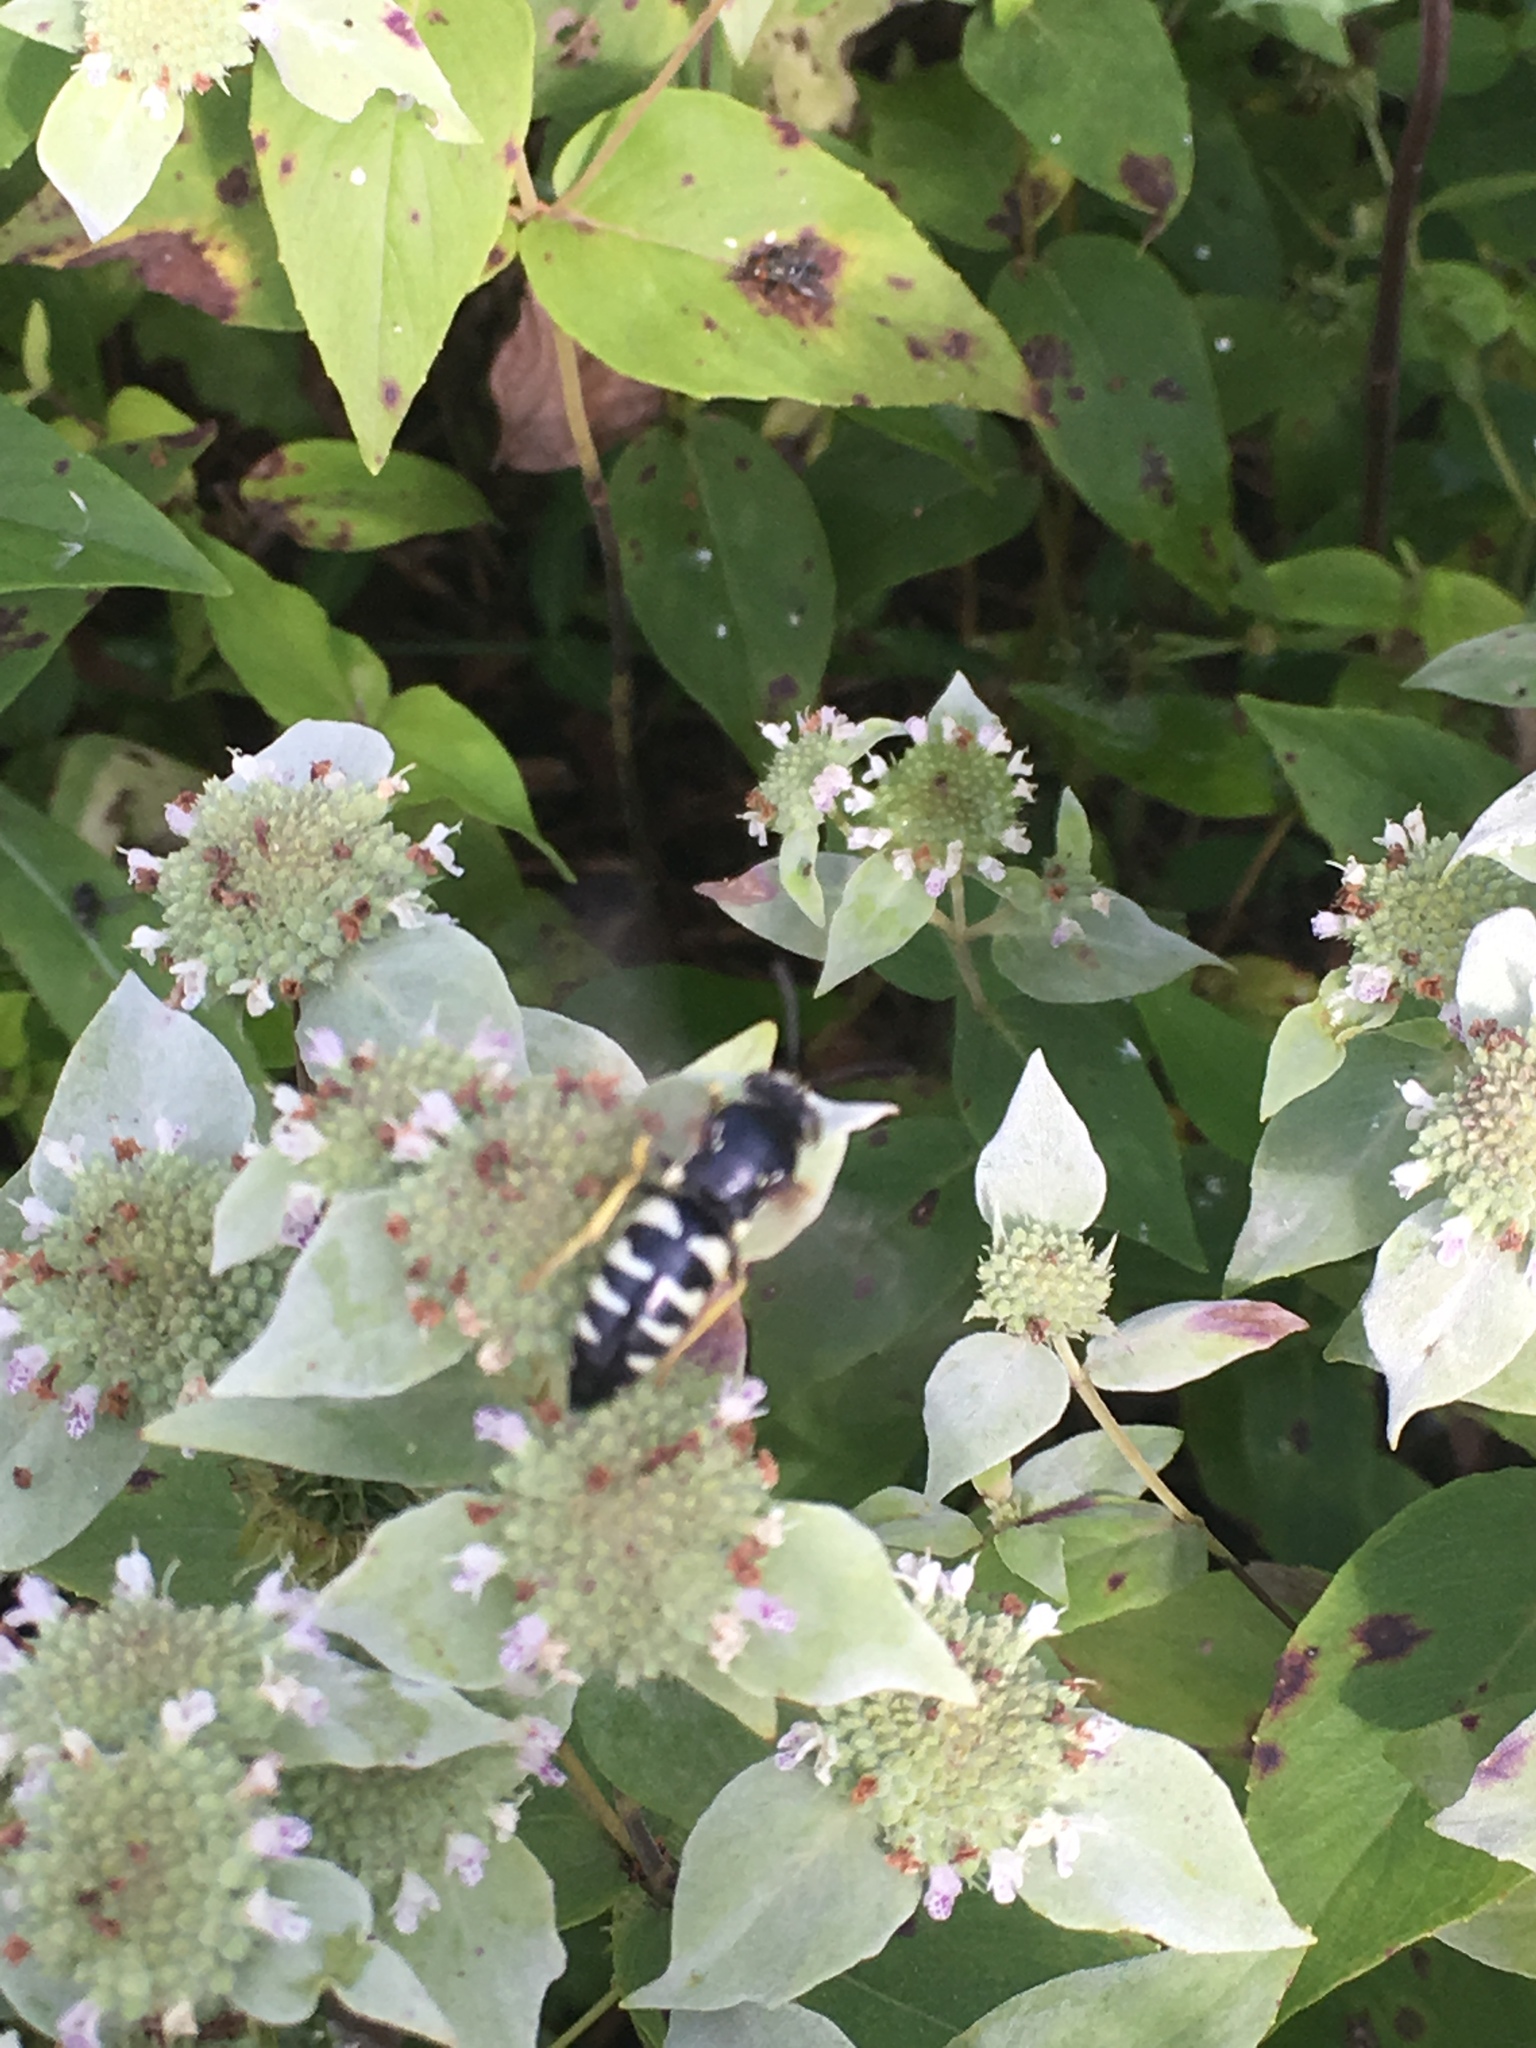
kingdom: Animalia
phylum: Arthropoda
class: Insecta
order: Hymenoptera
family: Crabronidae
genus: Bicyrtes
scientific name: Bicyrtes quadrifasciatus
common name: Four-banded stink bug hunter wasp
